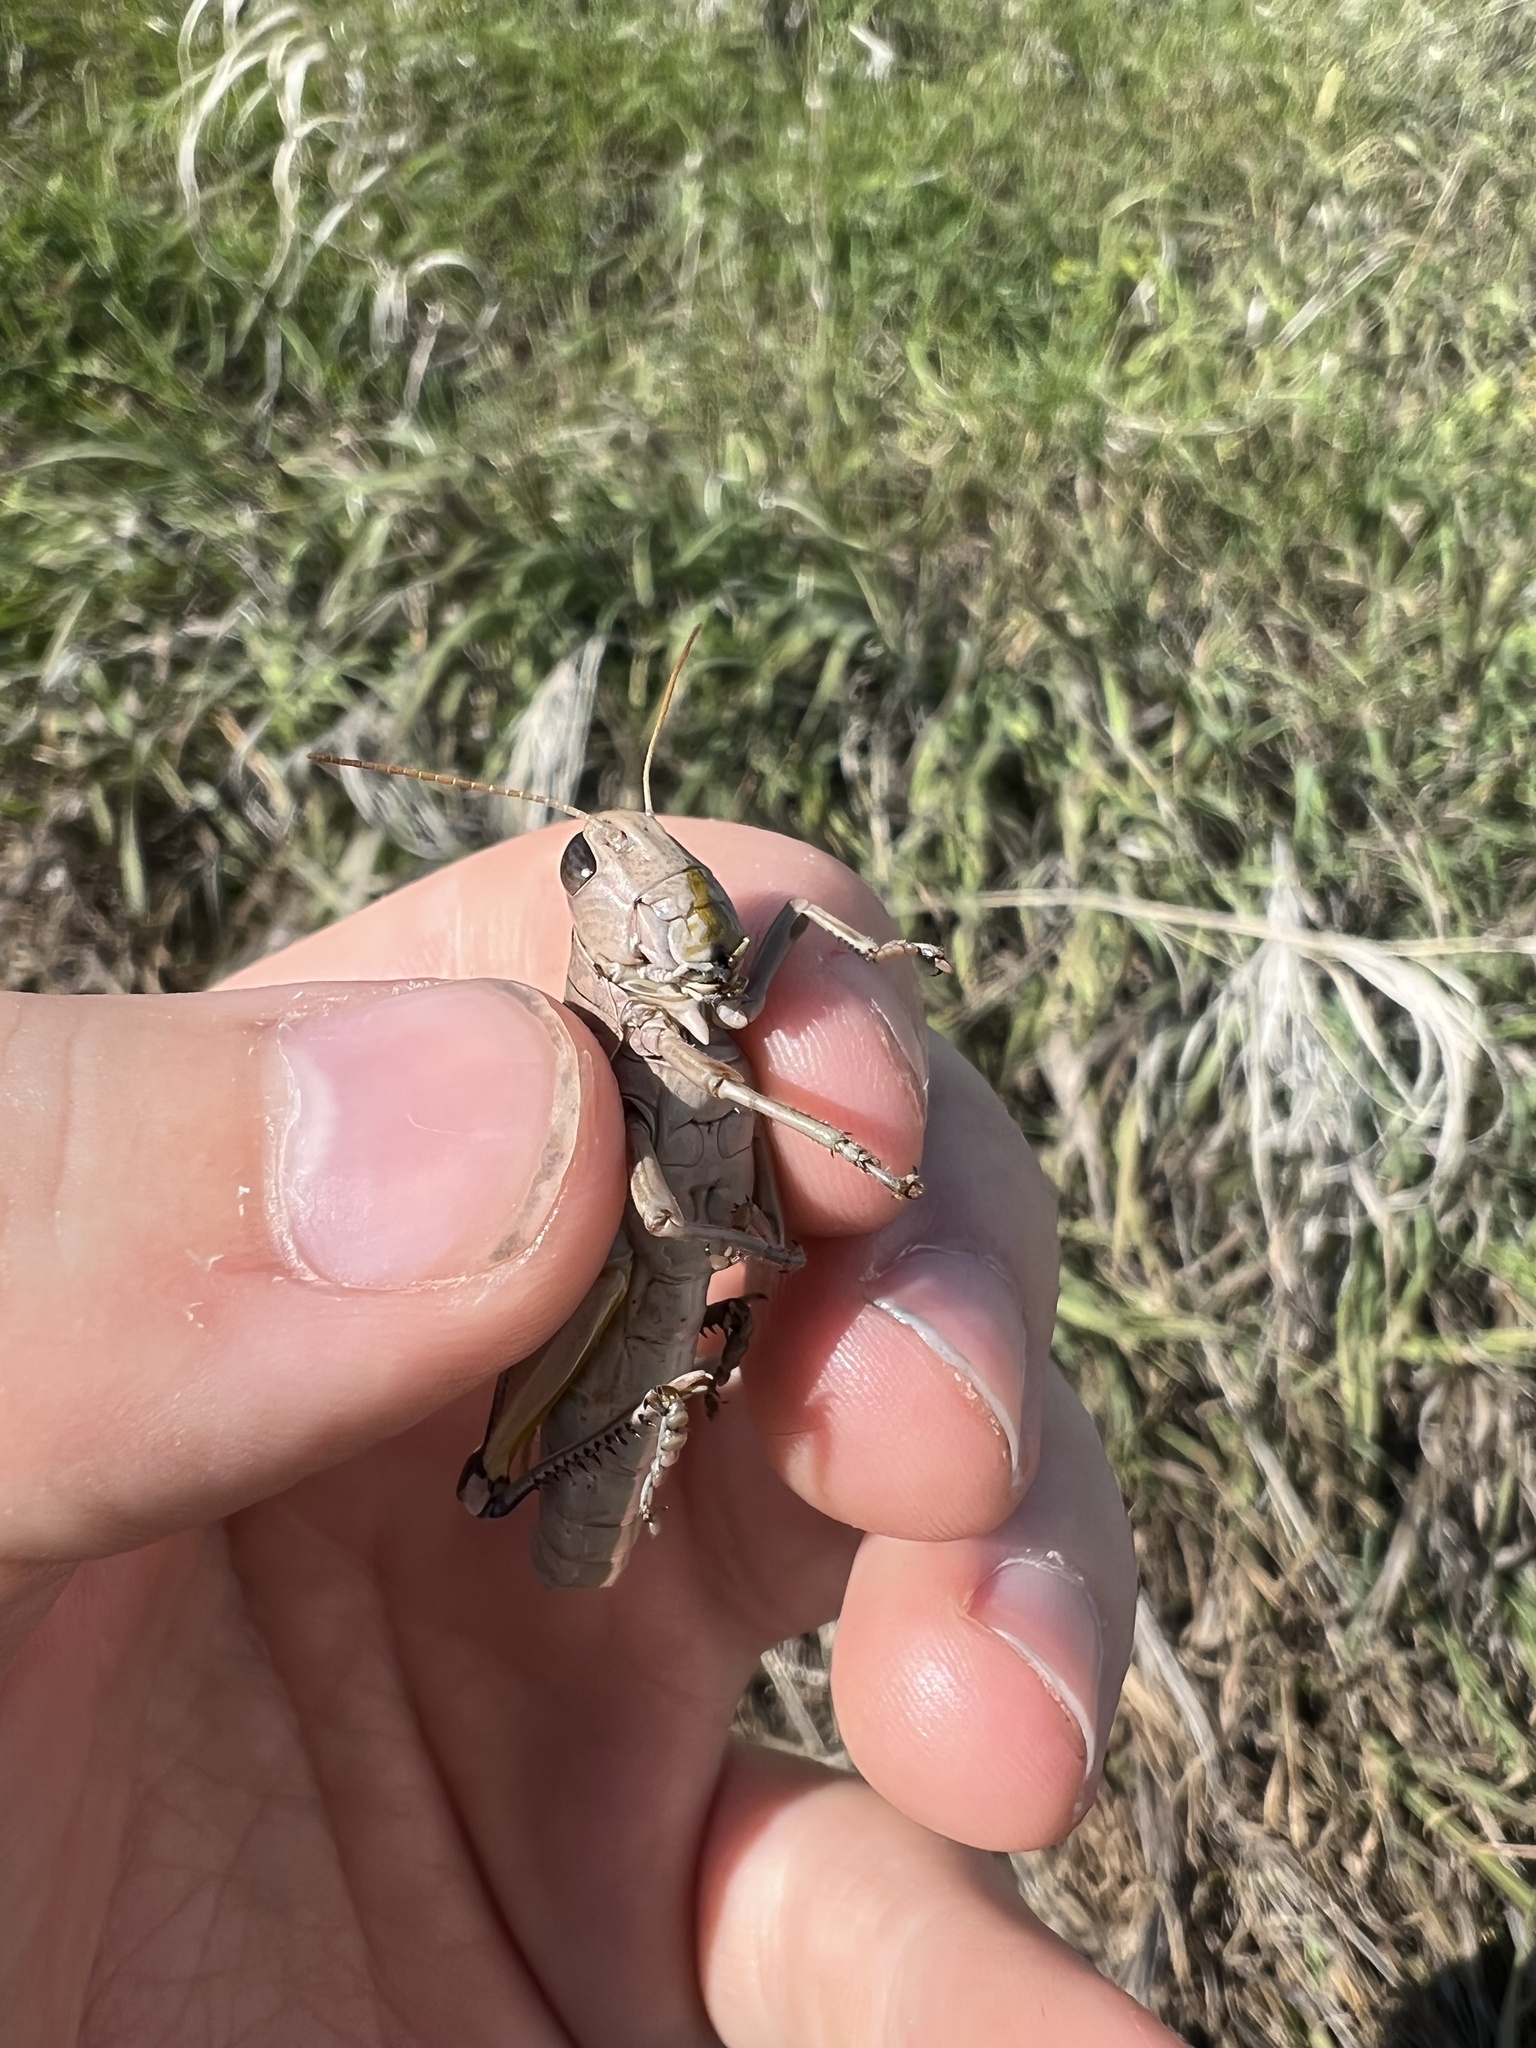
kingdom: Animalia
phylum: Arthropoda
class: Insecta
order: Orthoptera
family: Acrididae
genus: Melanoplus
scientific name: Melanoplus bivittatus
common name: Two-striped grasshopper
